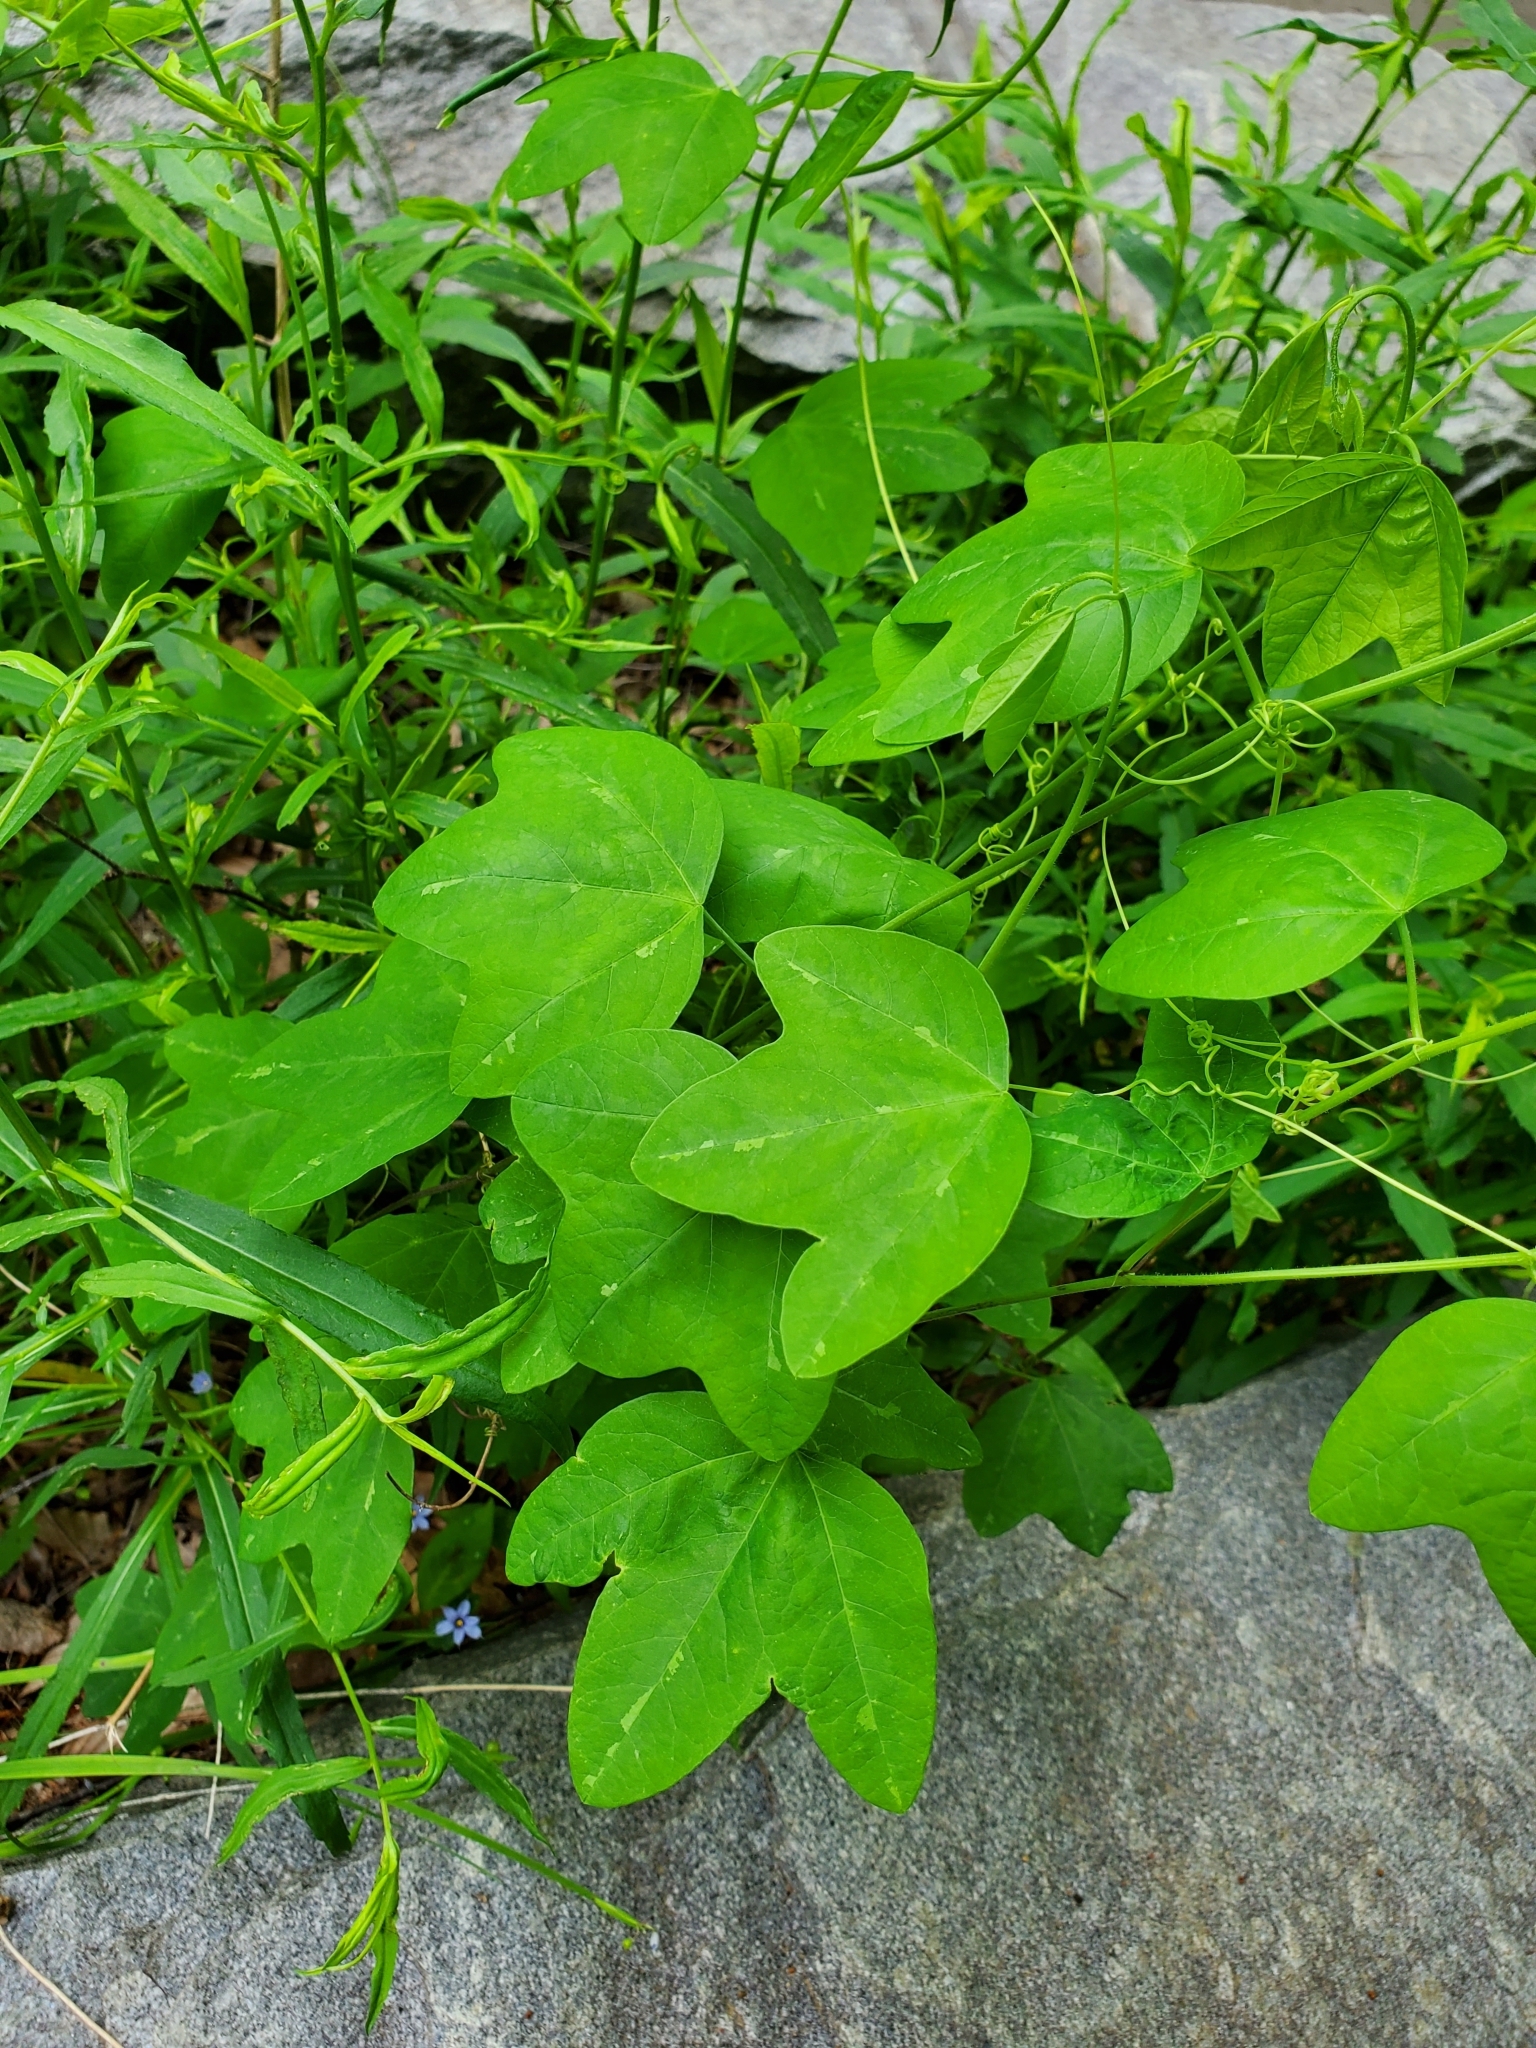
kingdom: Plantae
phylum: Tracheophyta
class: Magnoliopsida
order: Malpighiales
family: Passifloraceae
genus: Passiflora
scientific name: Passiflora lutea
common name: Yellow passionflower
